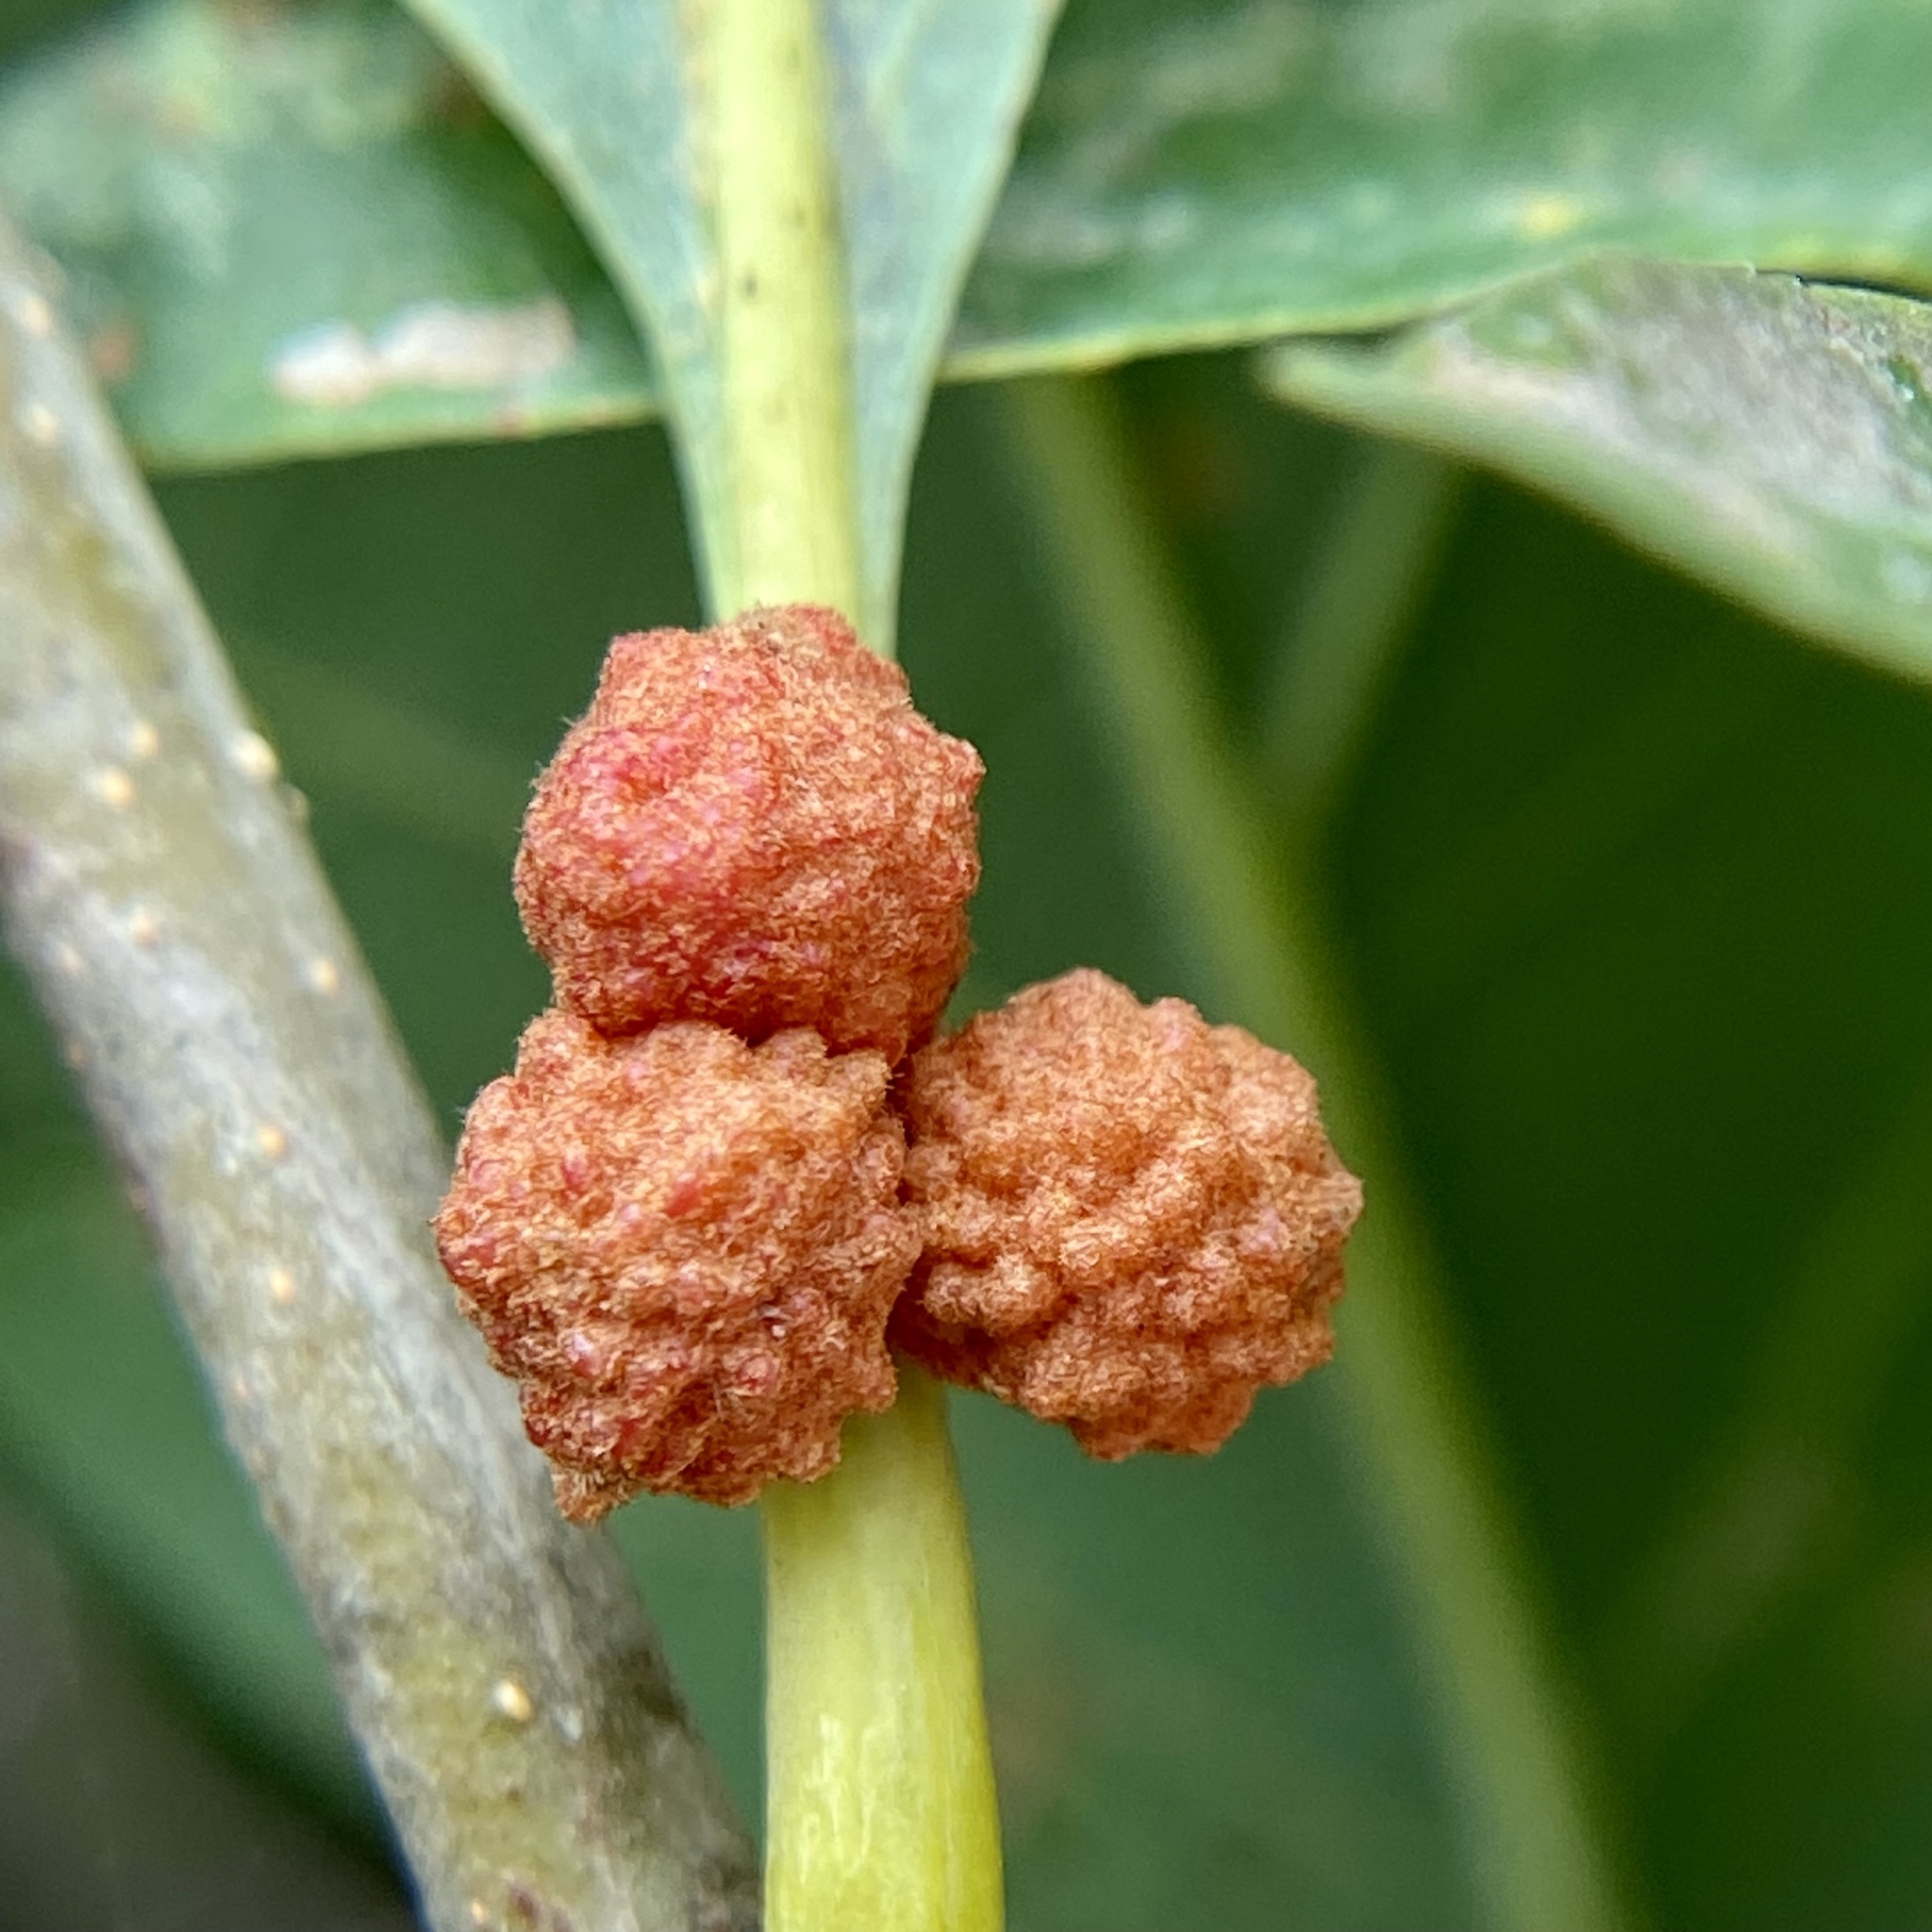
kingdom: Animalia
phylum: Arthropoda
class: Insecta
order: Hymenoptera
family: Cynipidae
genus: Andricus
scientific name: Andricus
